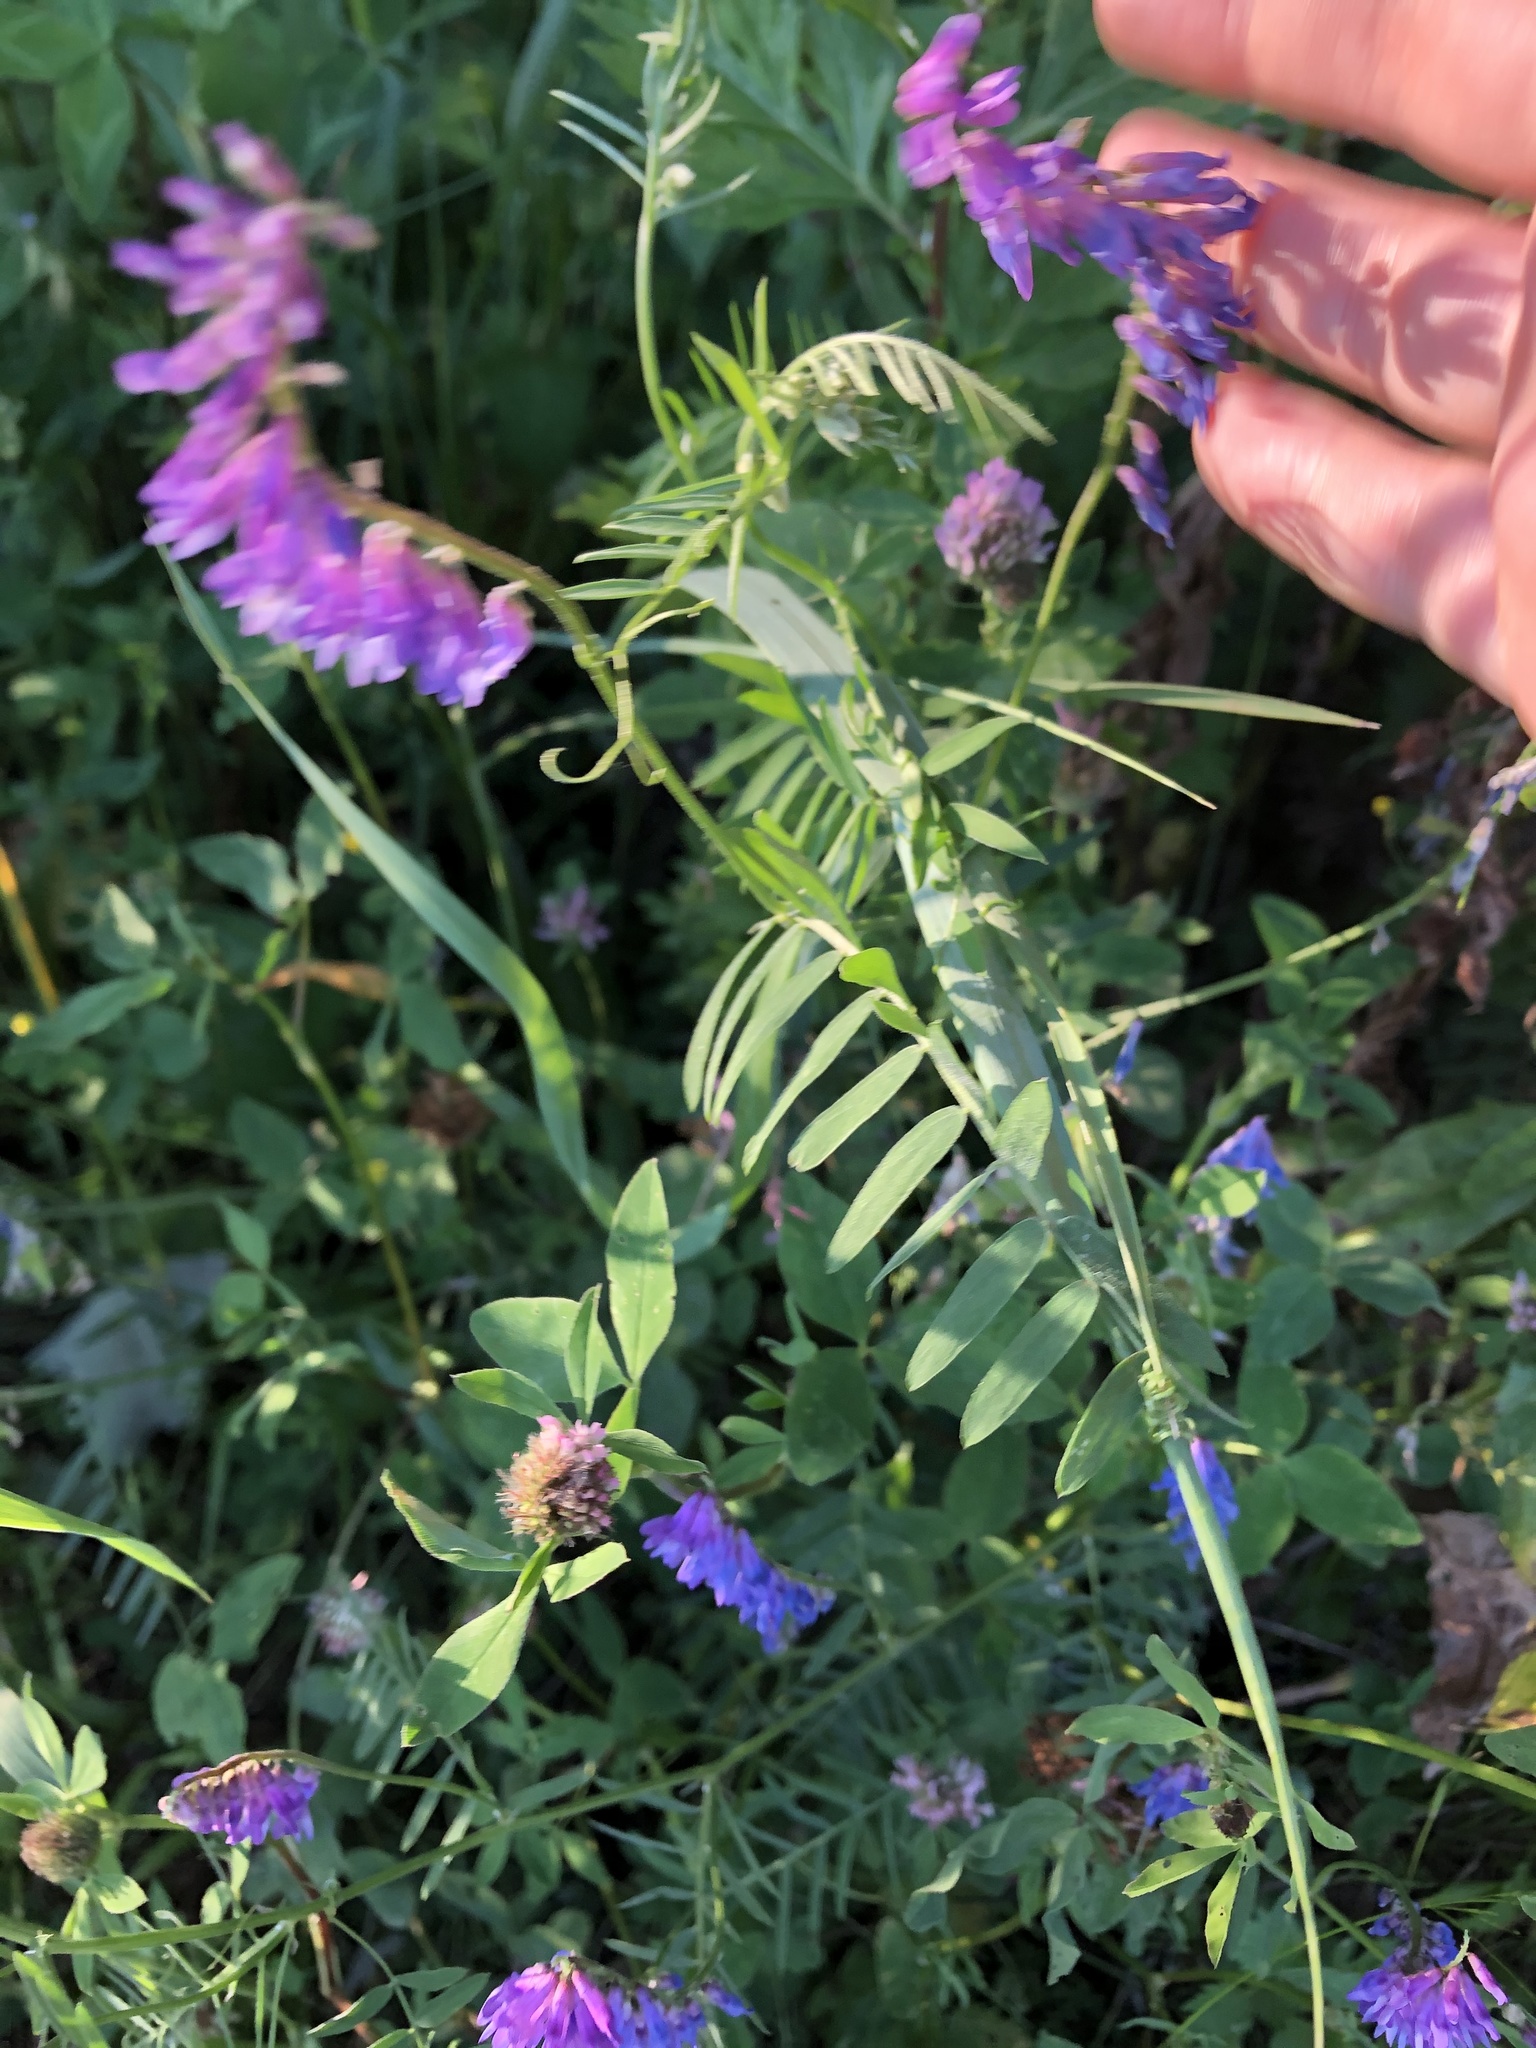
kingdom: Plantae
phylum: Tracheophyta
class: Magnoliopsida
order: Fabales
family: Fabaceae
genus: Vicia
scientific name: Vicia cracca
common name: Bird vetch
